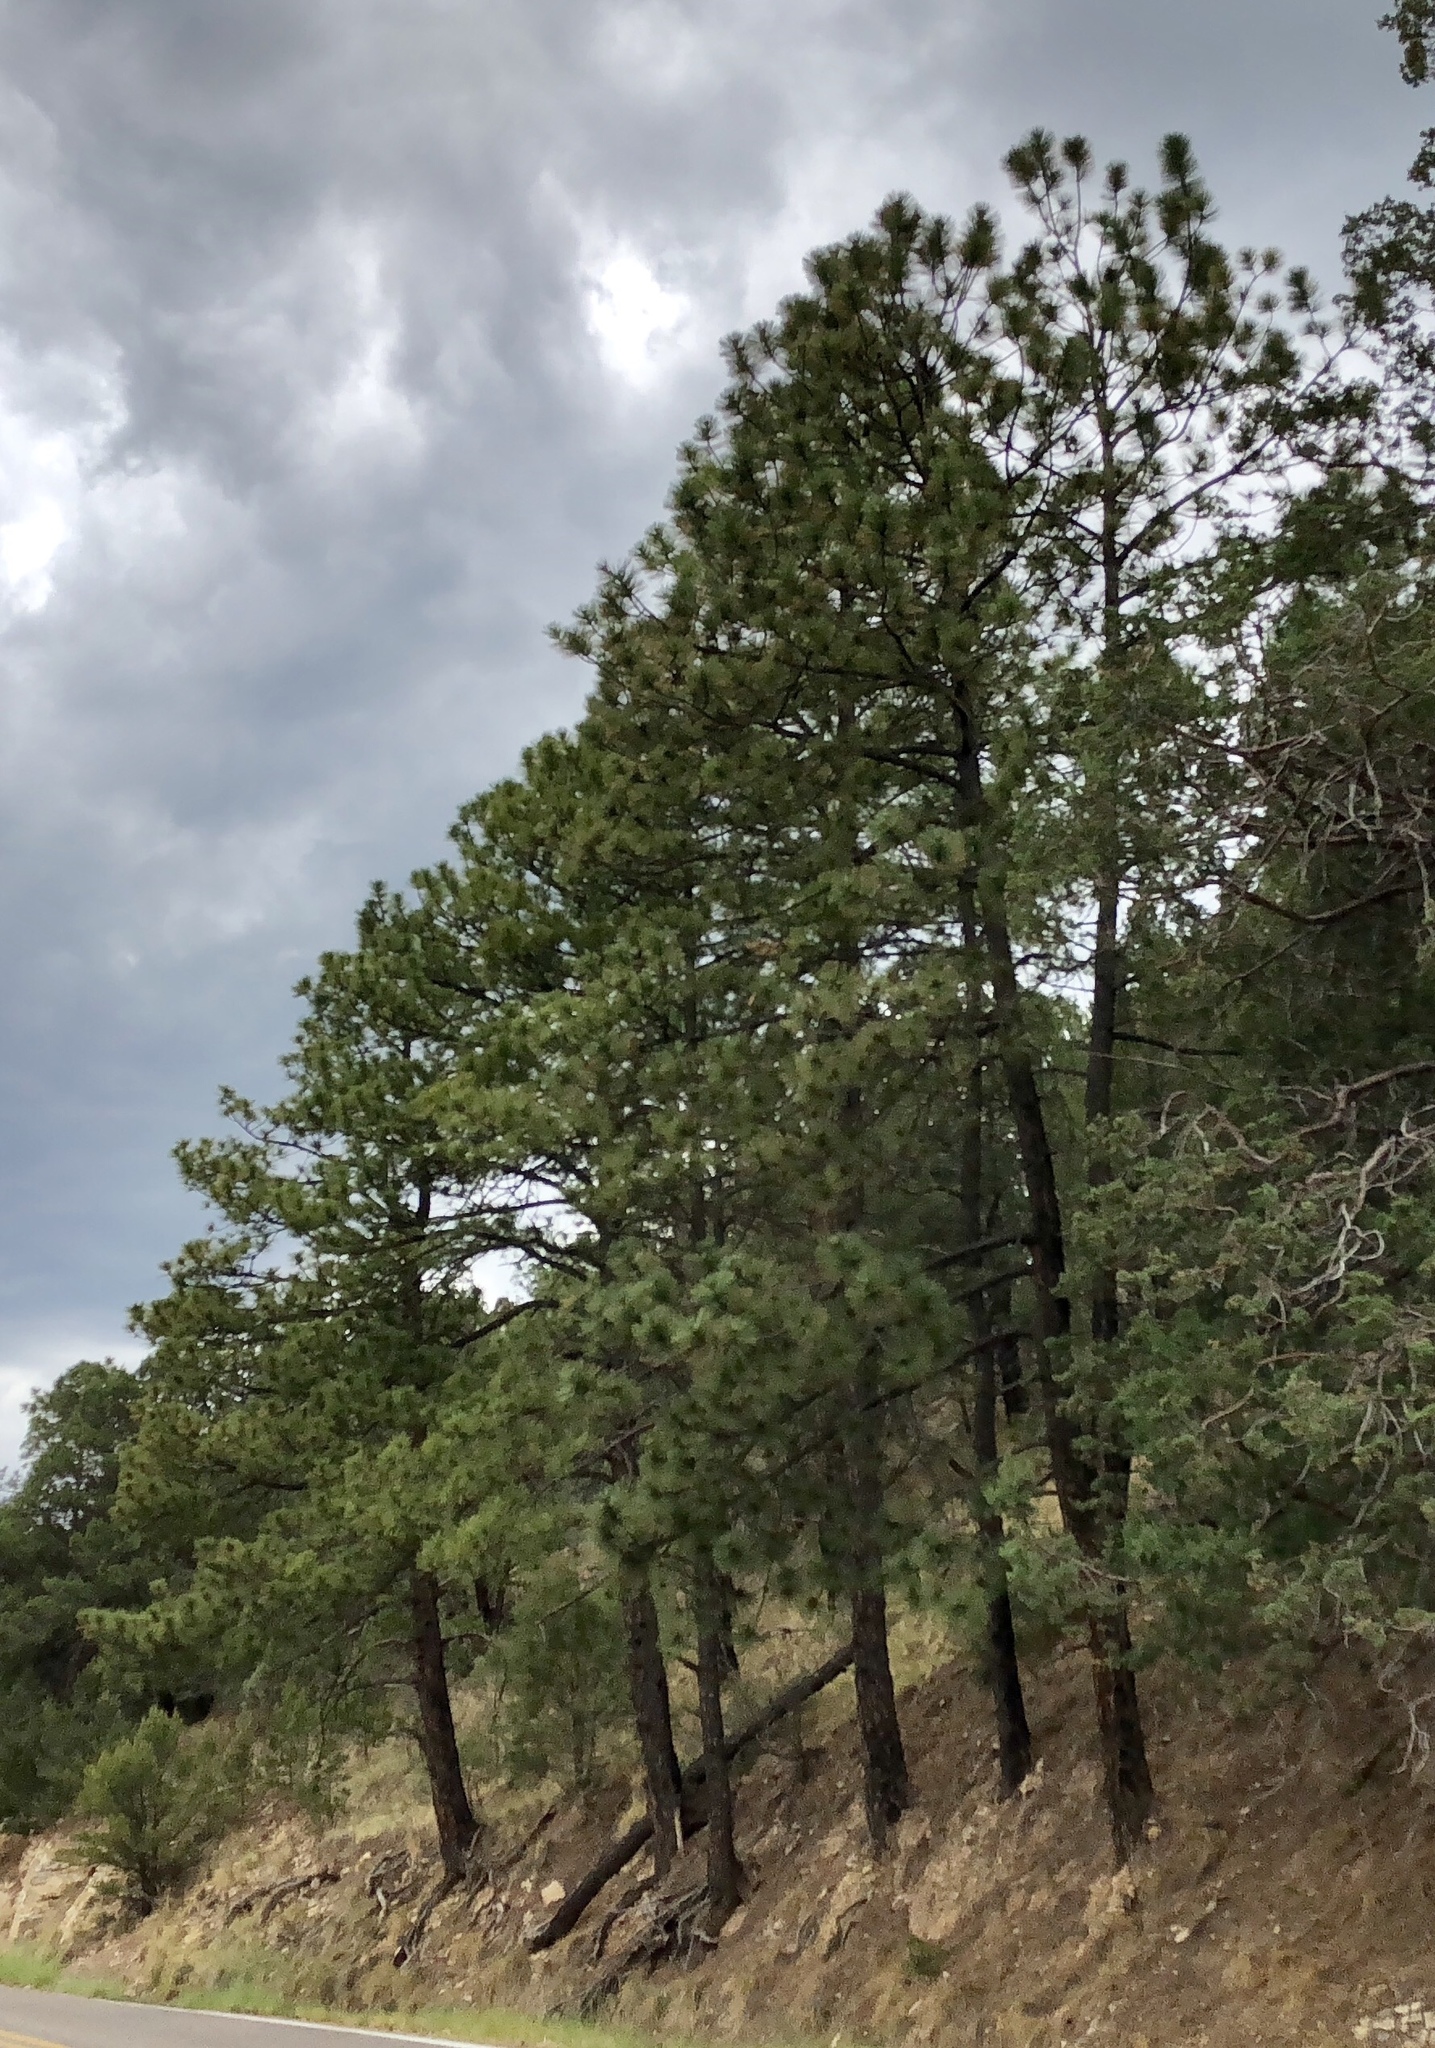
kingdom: Plantae
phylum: Tracheophyta
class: Pinopsida
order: Pinales
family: Pinaceae
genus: Pinus
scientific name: Pinus ponderosa
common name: Western yellow-pine
